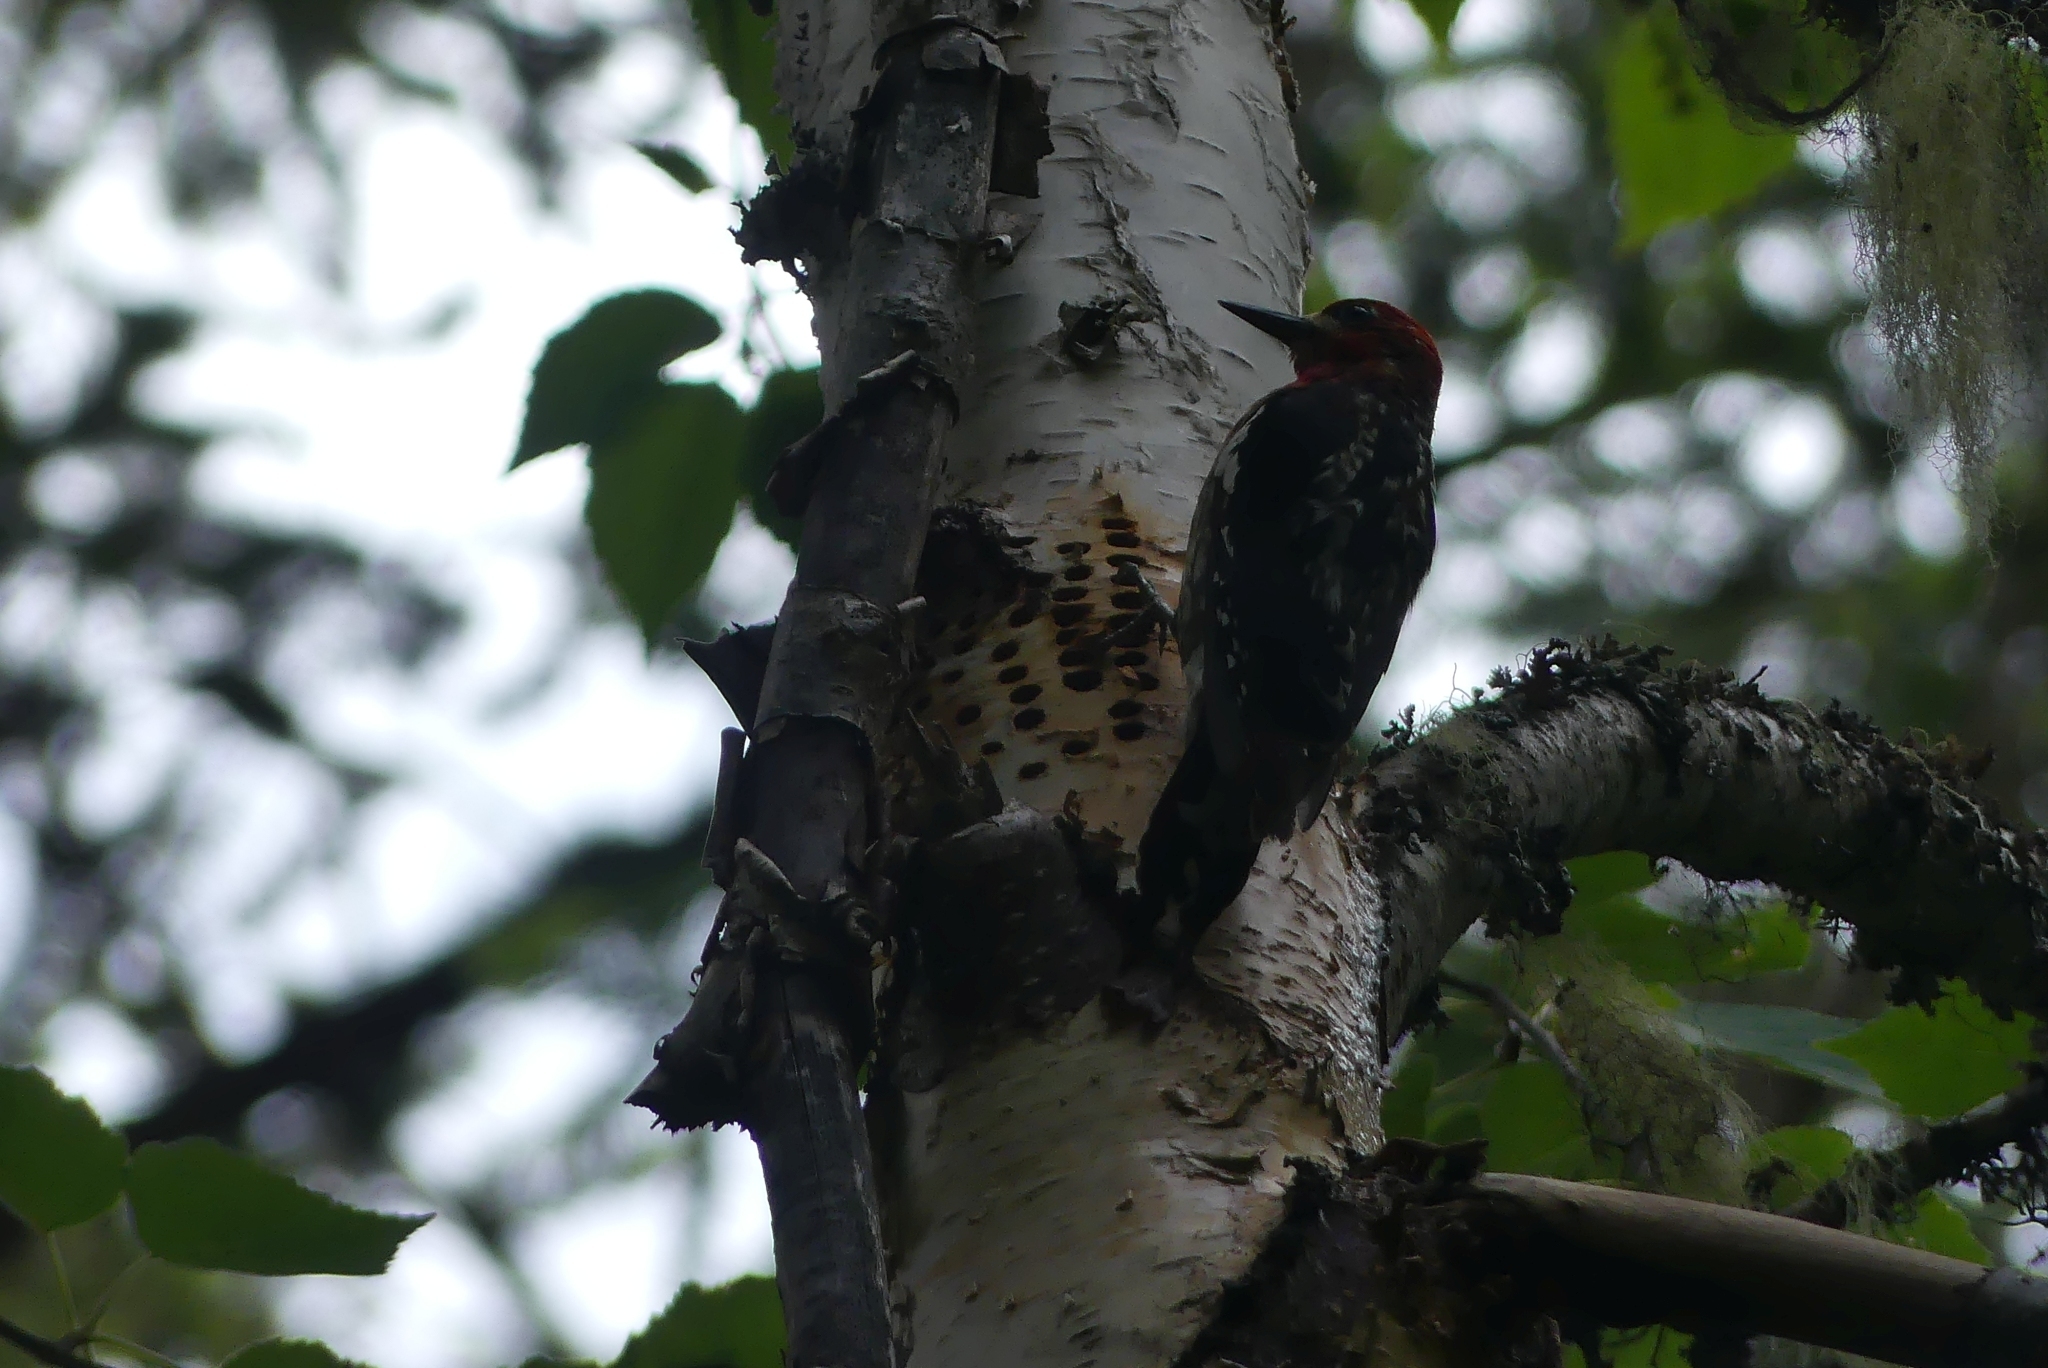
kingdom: Animalia
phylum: Chordata
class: Aves
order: Piciformes
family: Picidae
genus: Sphyrapicus
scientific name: Sphyrapicus ruber
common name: Red-breasted sapsucker
